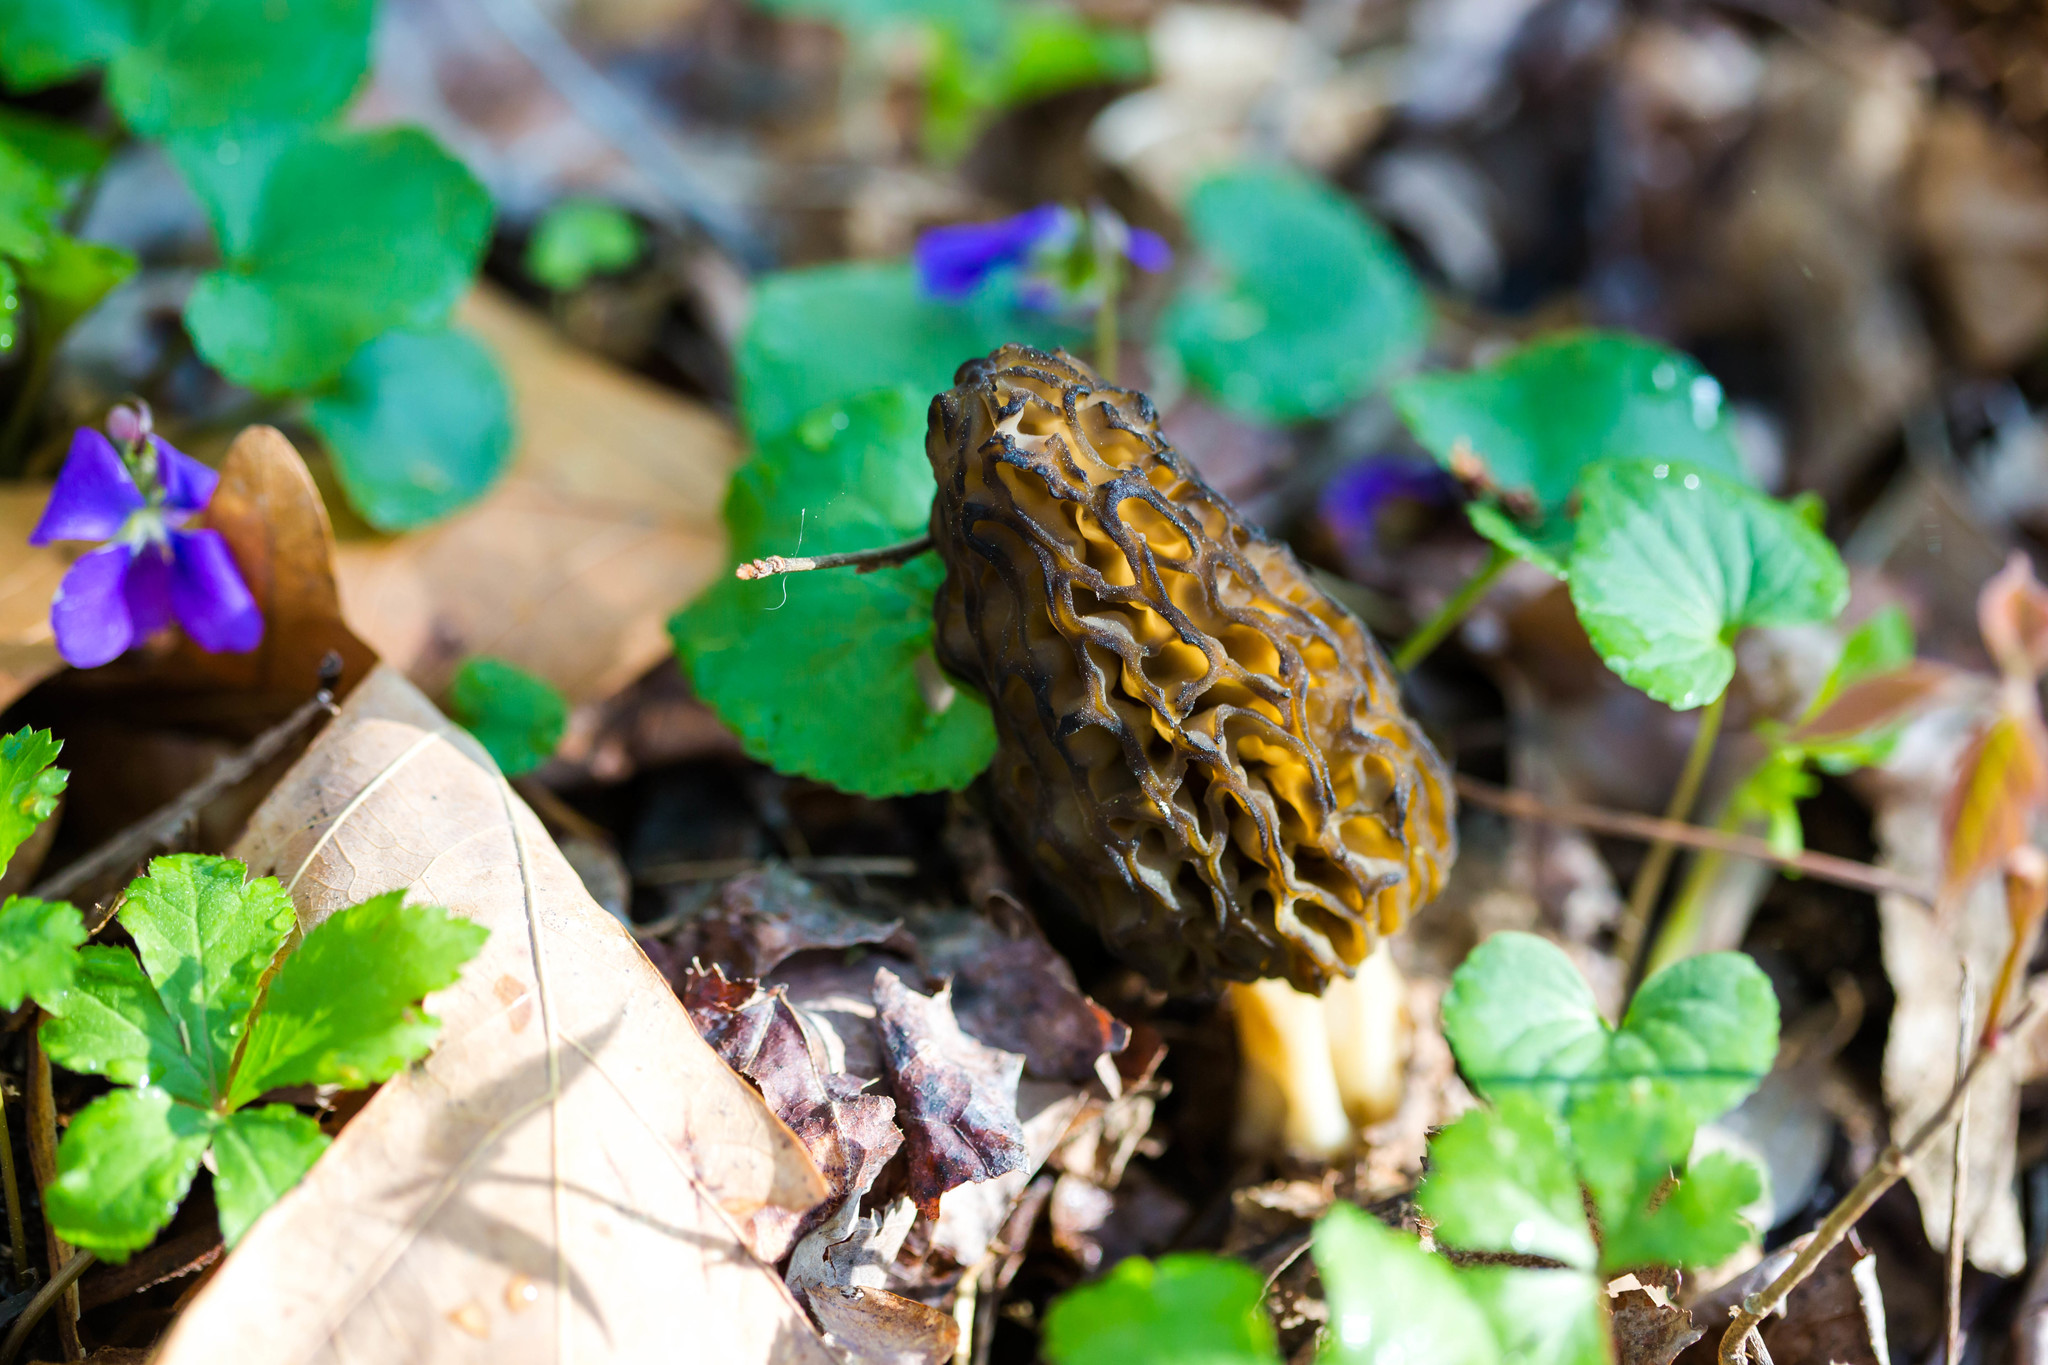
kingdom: Fungi
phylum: Ascomycota
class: Pezizomycetes
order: Pezizales
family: Morchellaceae
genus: Morchella
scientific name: Morchella angusticeps
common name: Black morel
